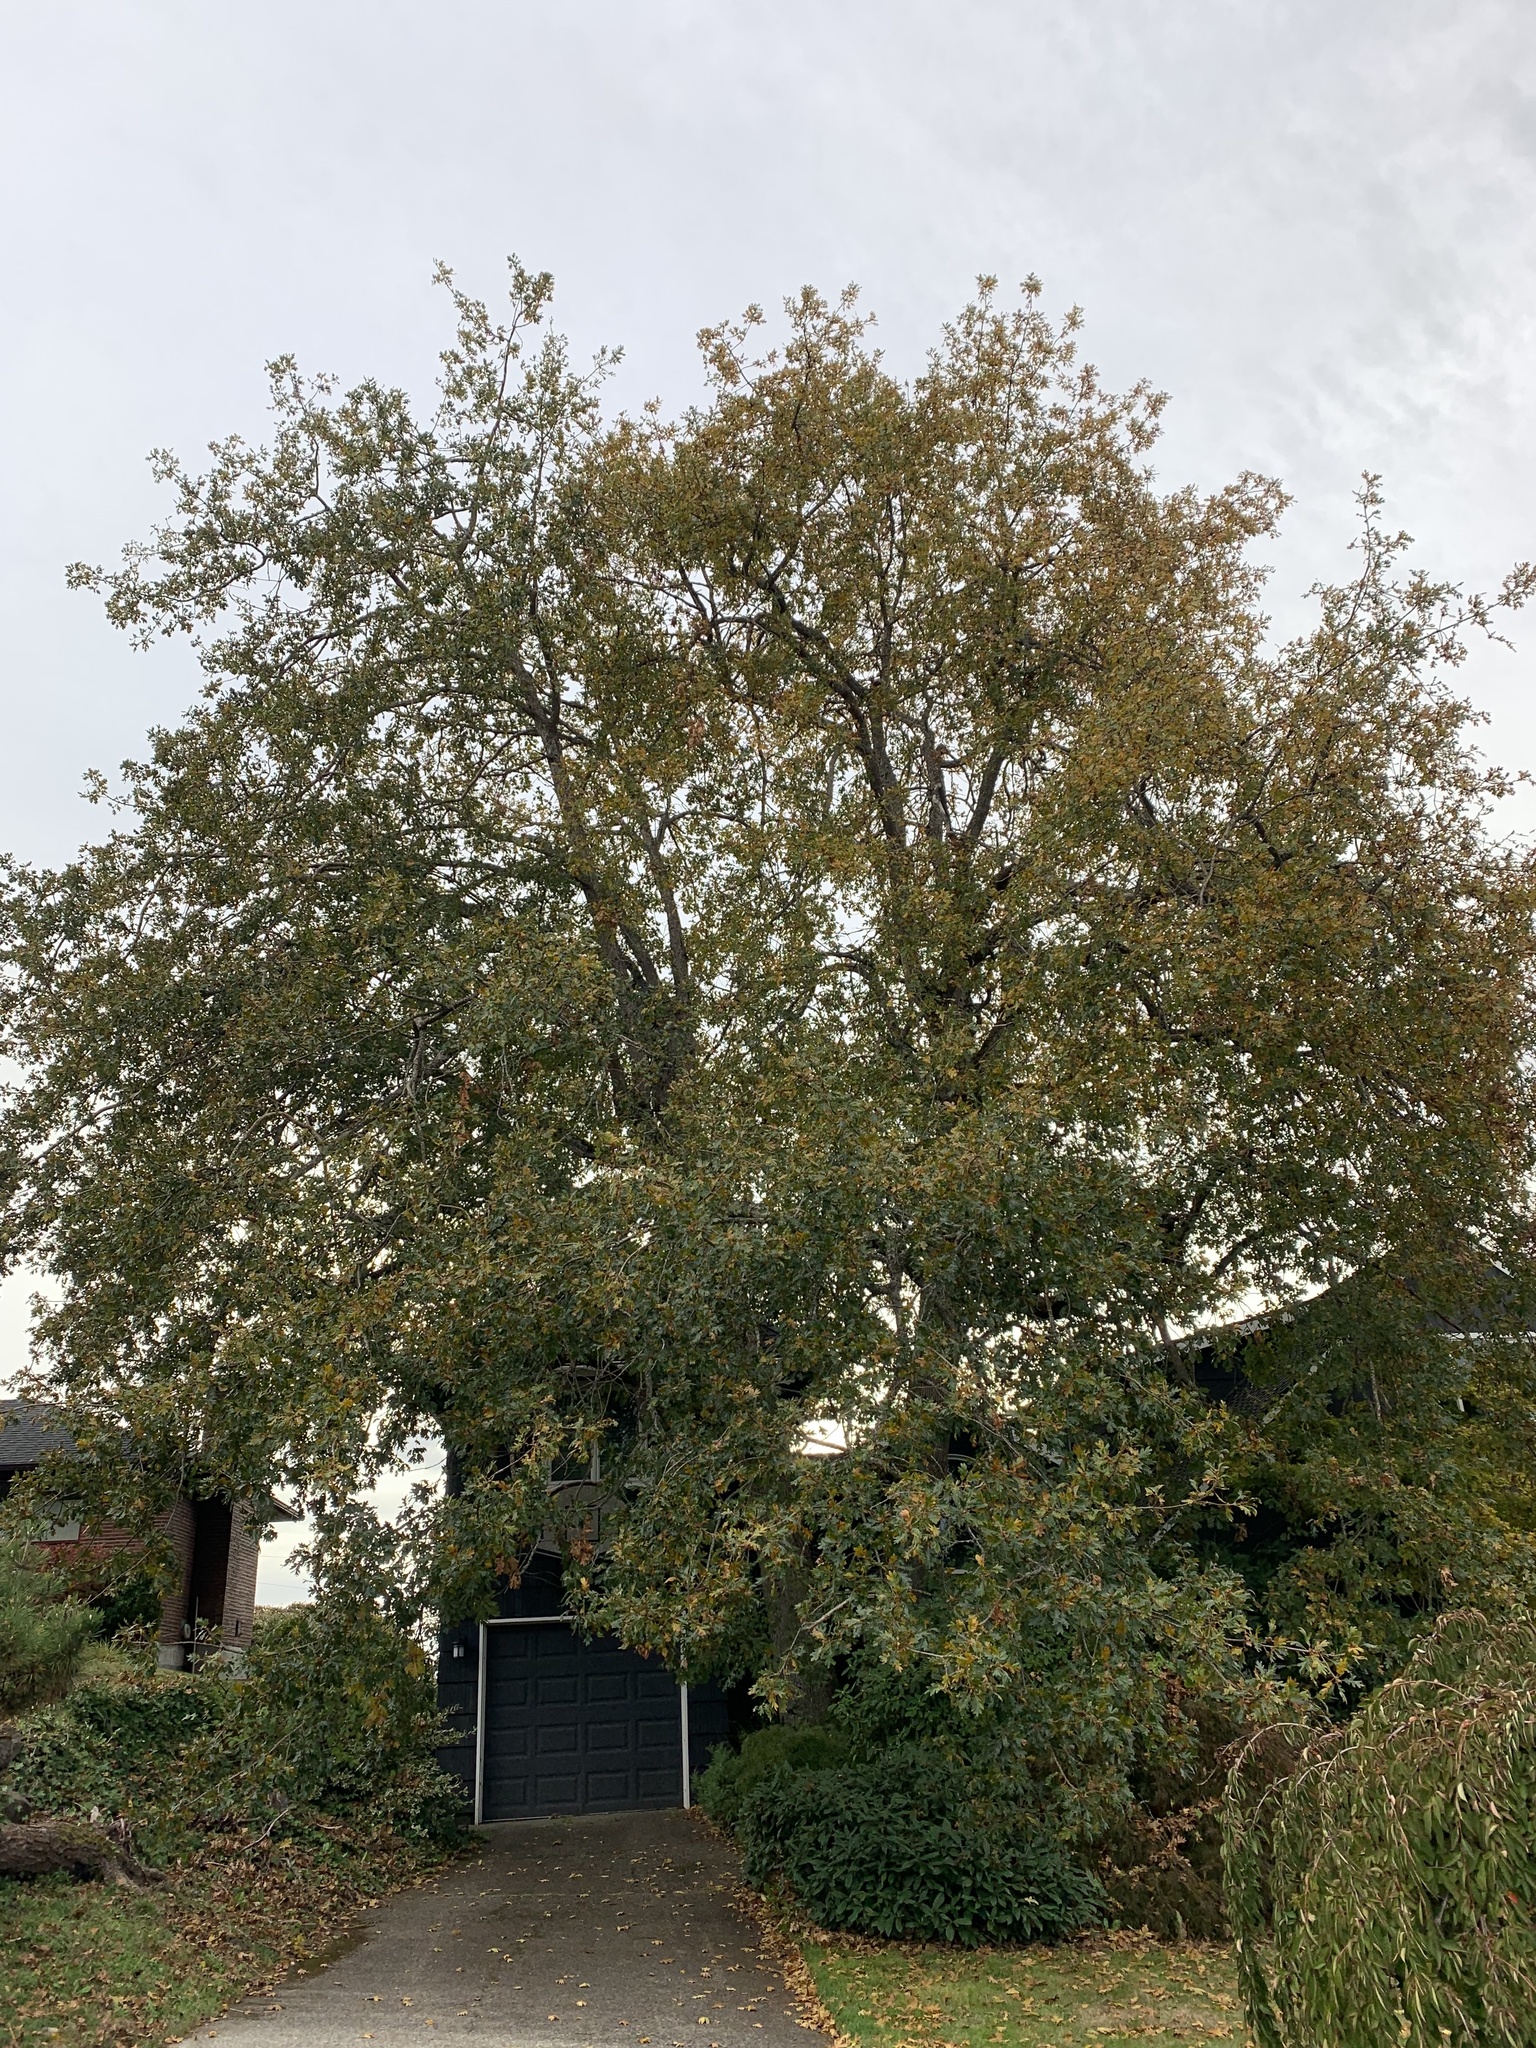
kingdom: Plantae
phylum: Tracheophyta
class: Magnoliopsida
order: Fagales
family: Fagaceae
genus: Quercus
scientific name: Quercus garryana
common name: Garry oak
